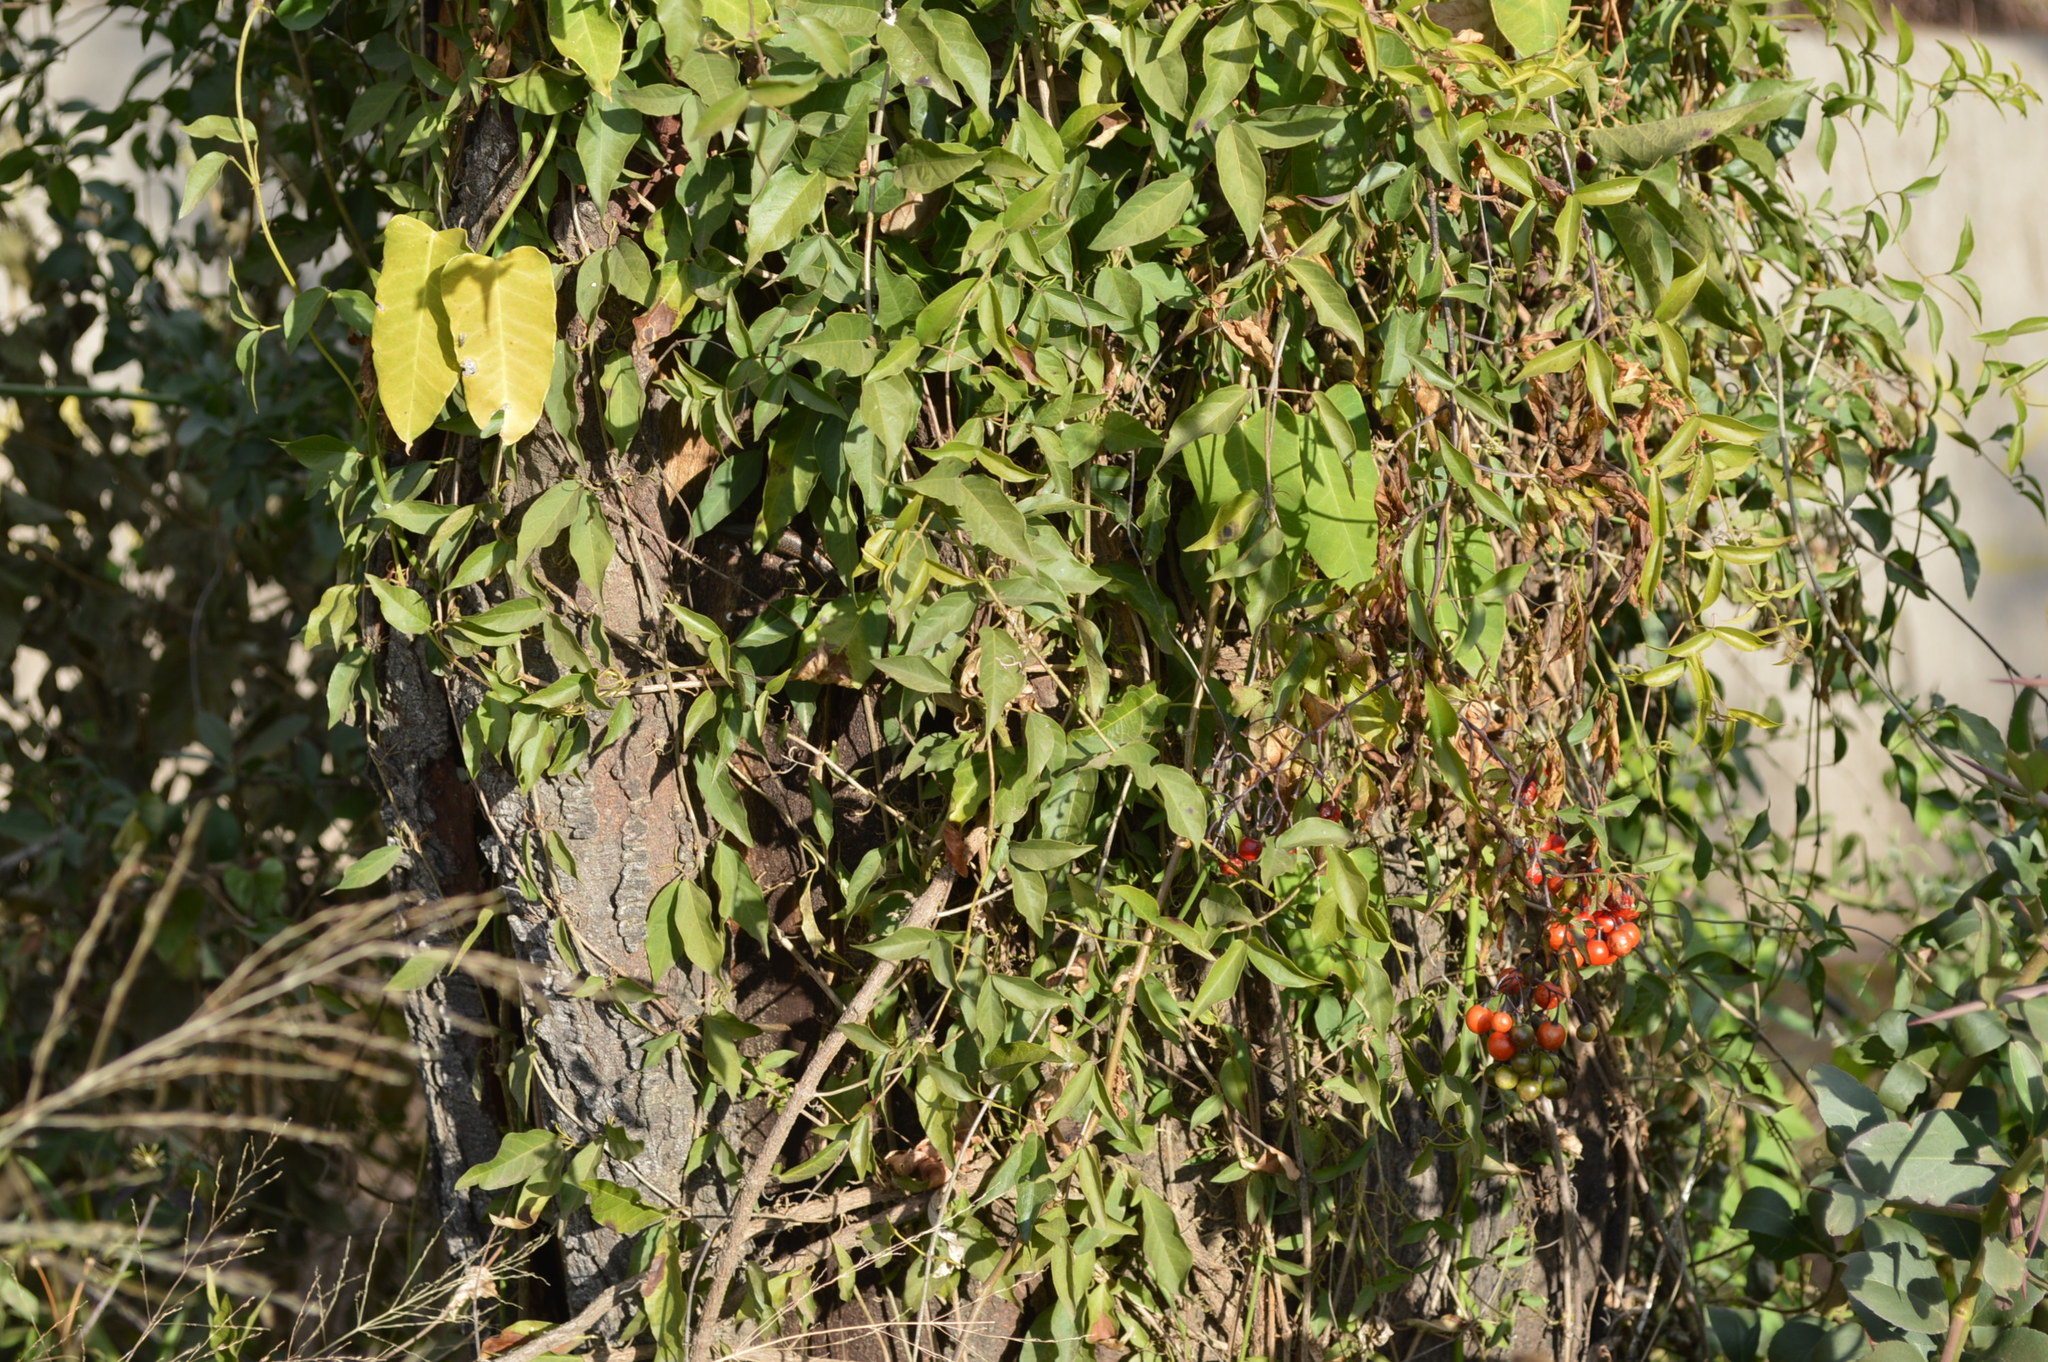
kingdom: Plantae
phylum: Tracheophyta
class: Magnoliopsida
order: Solanales
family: Solanaceae
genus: Solanum
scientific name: Solanum seaforthianum
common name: Brazilian nightshade
